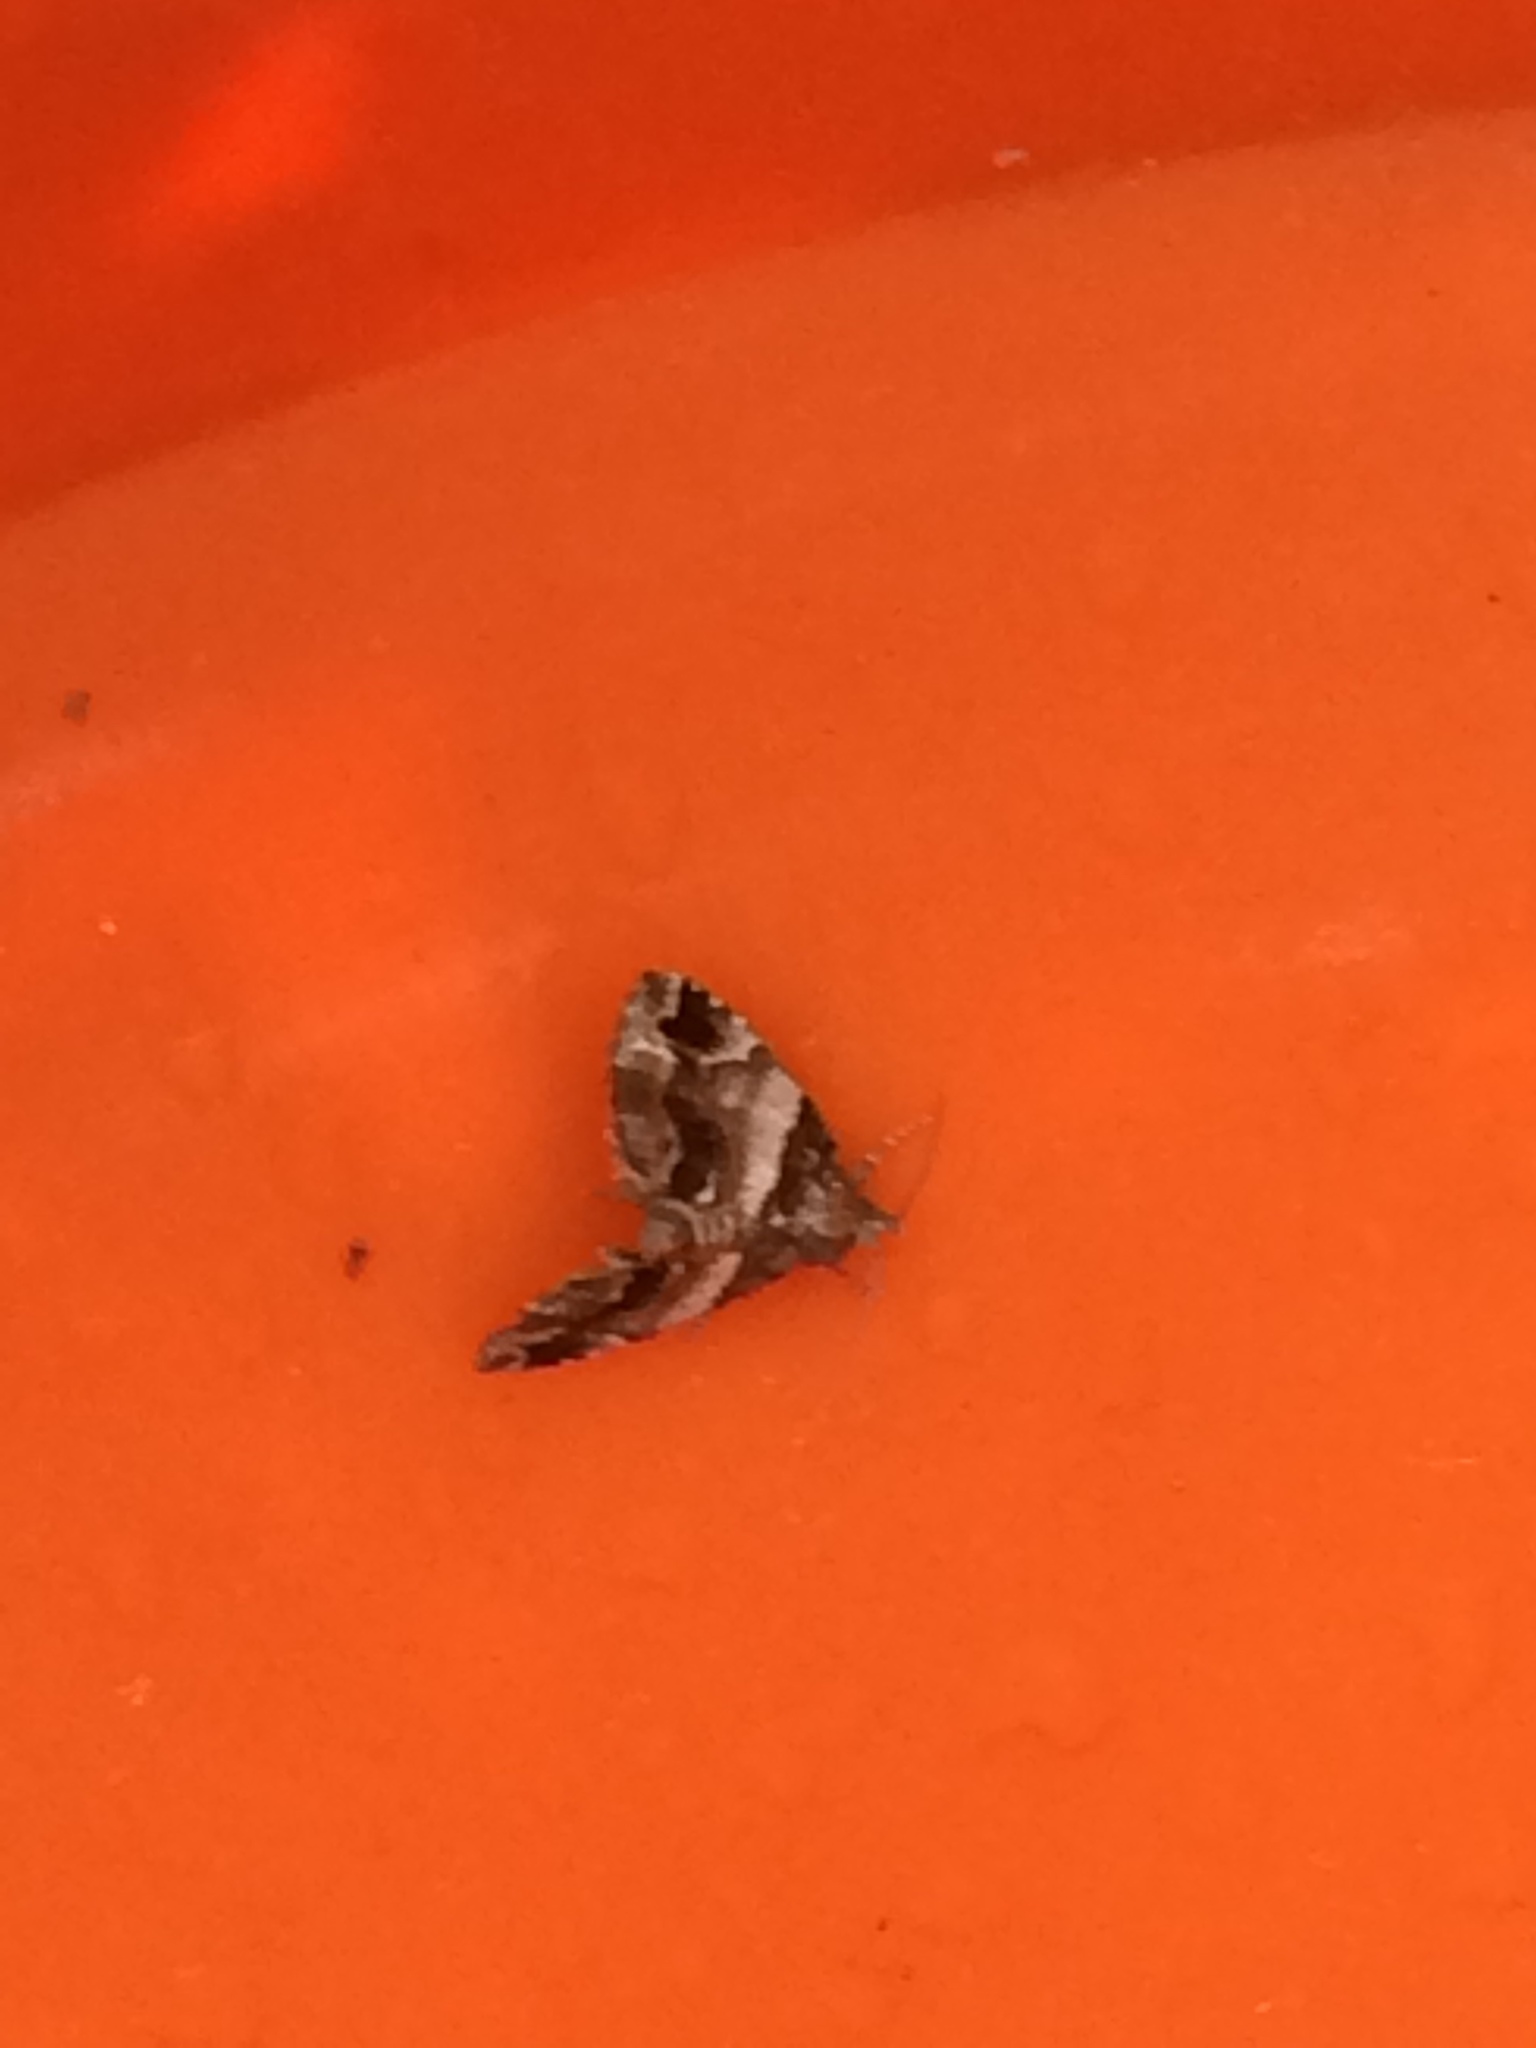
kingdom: Animalia
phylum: Arthropoda
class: Insecta
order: Lepidoptera
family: Erebidae
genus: Cutina
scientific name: Cutina distincta
